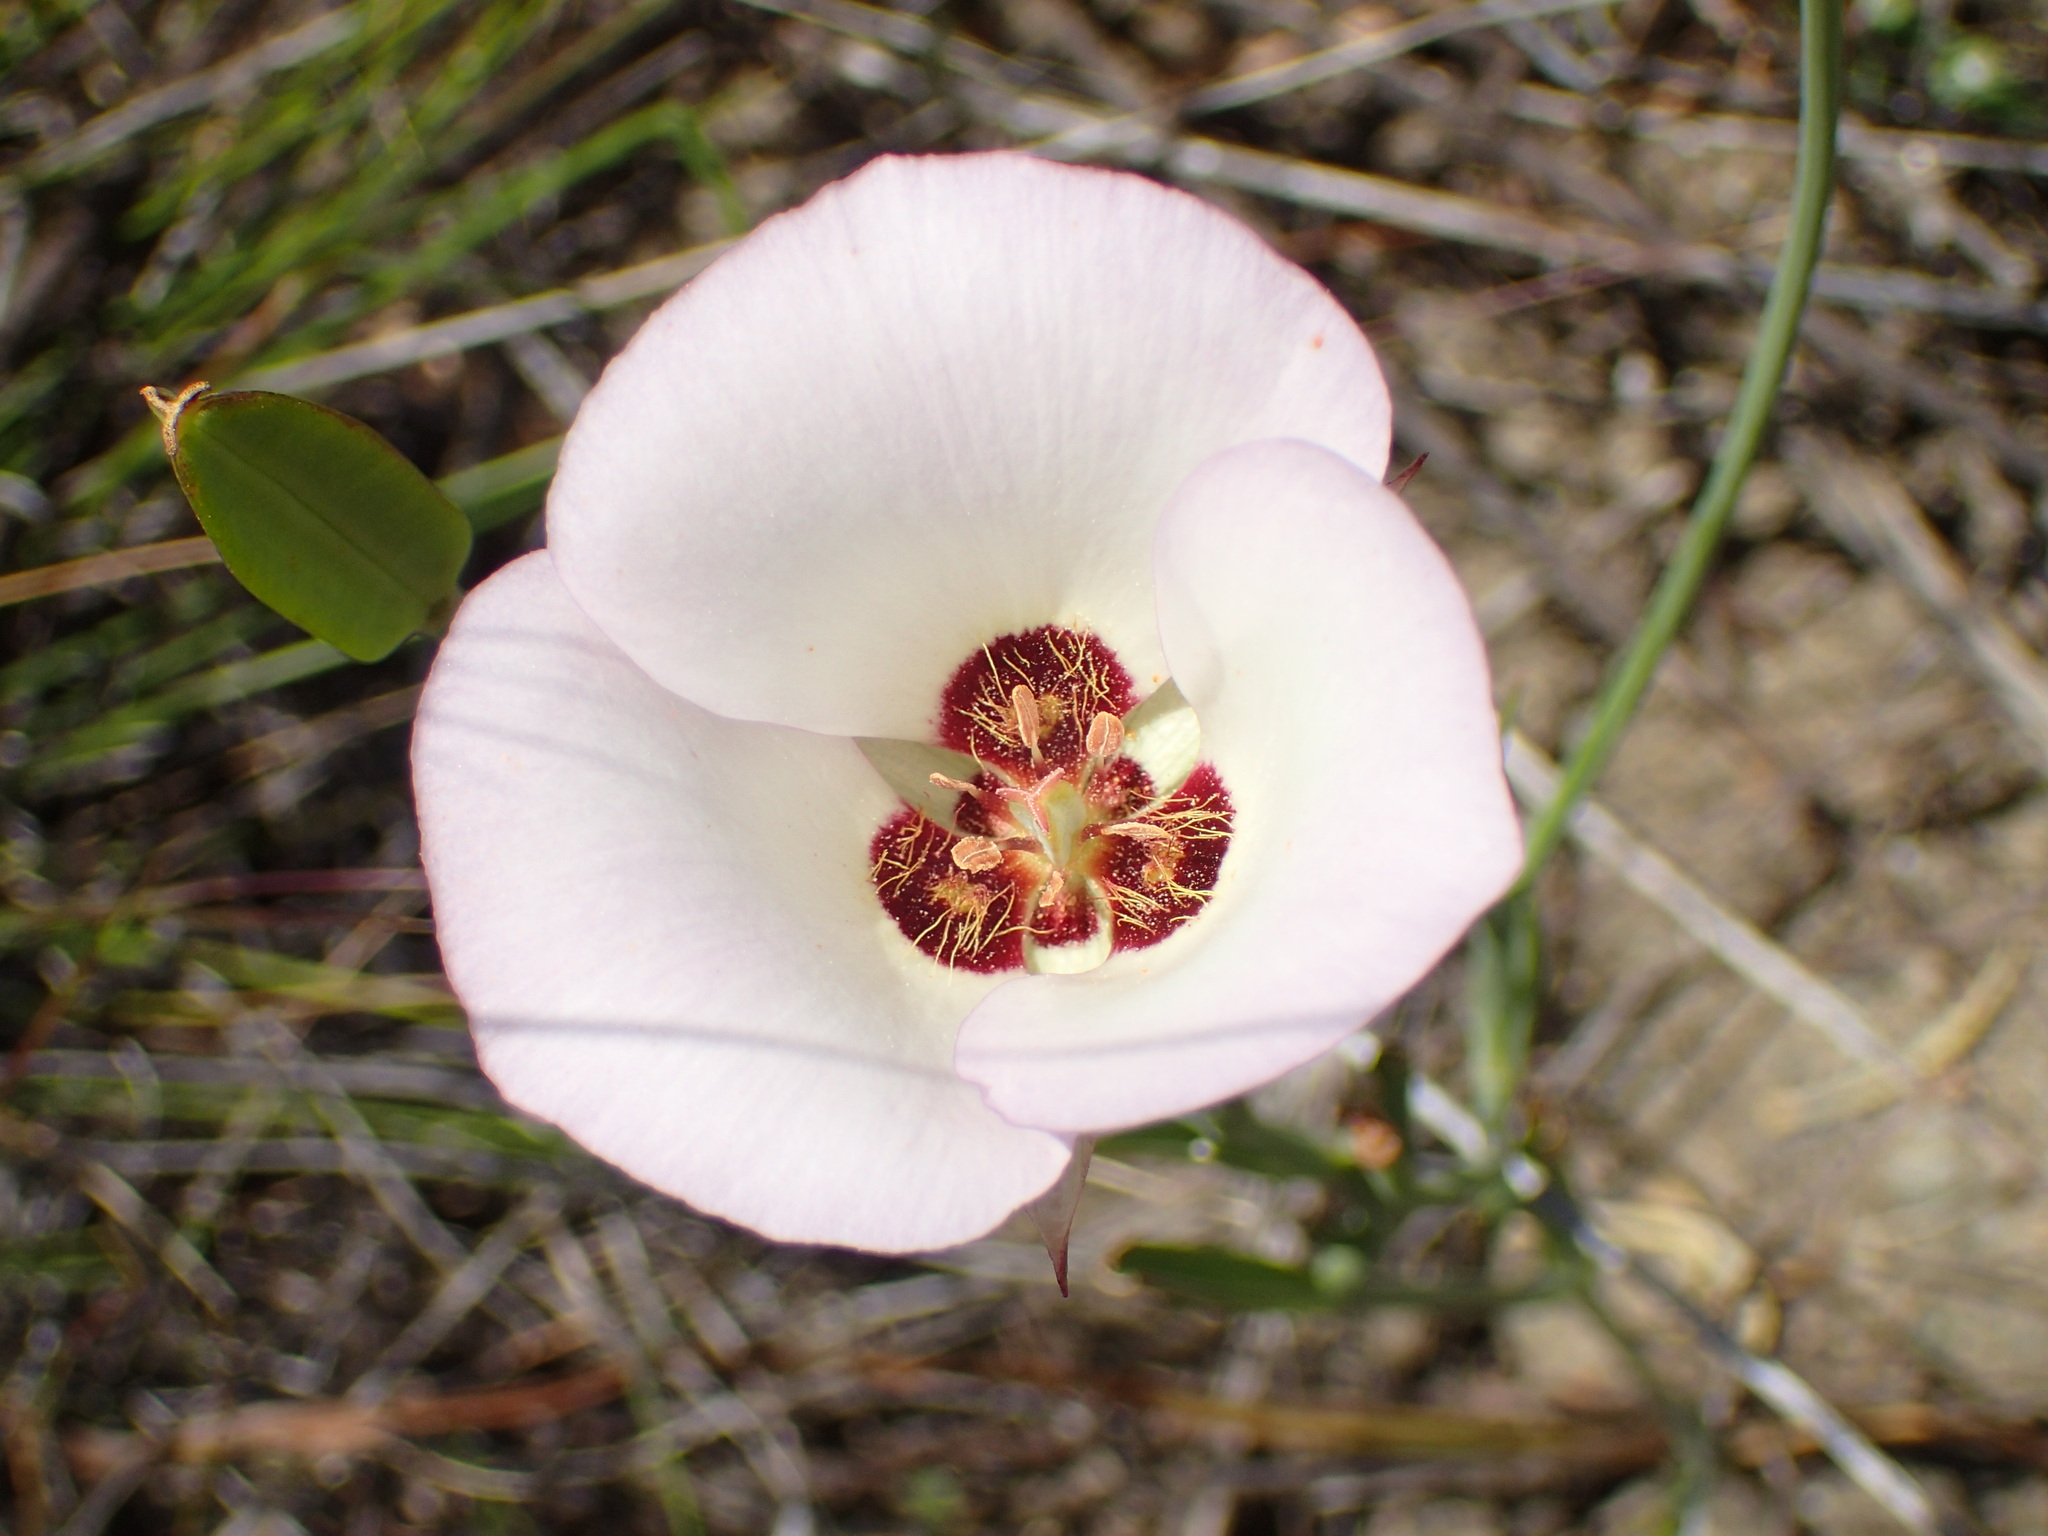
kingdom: Plantae
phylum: Tracheophyta
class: Liliopsida
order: Liliales
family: Liliaceae
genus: Calochortus
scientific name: Calochortus catalinae
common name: Catalina mariposa-lily
